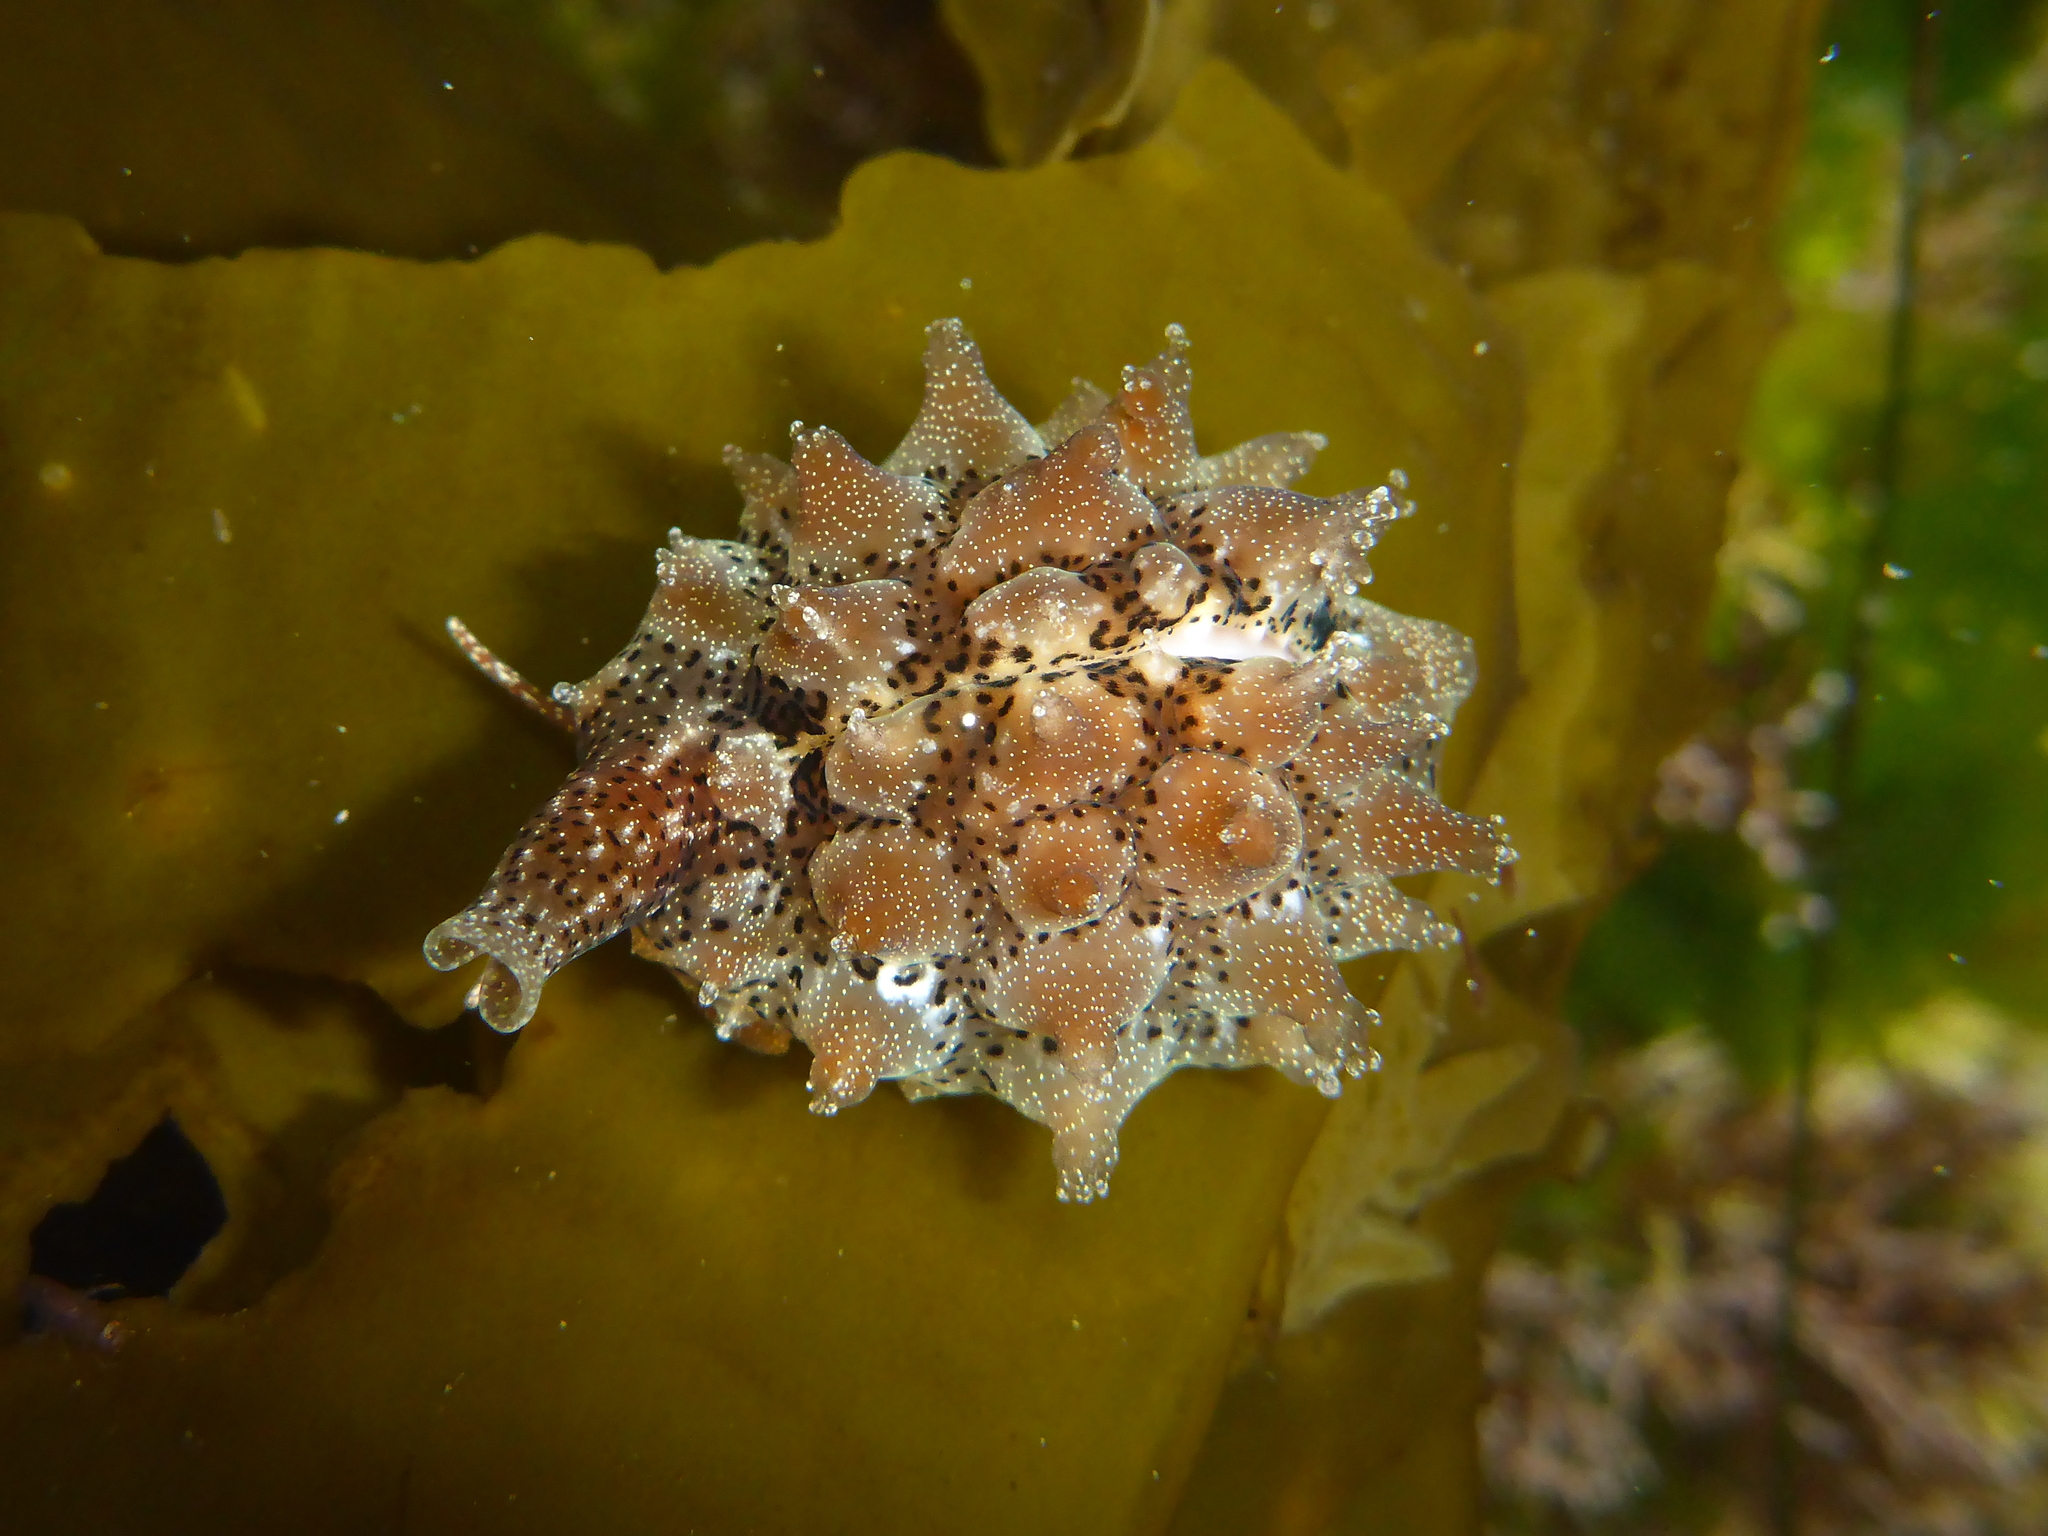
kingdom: Animalia
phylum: Mollusca
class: Gastropoda
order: Littorinimorpha
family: Triviidae
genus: Pusula
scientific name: Pusula solandri
